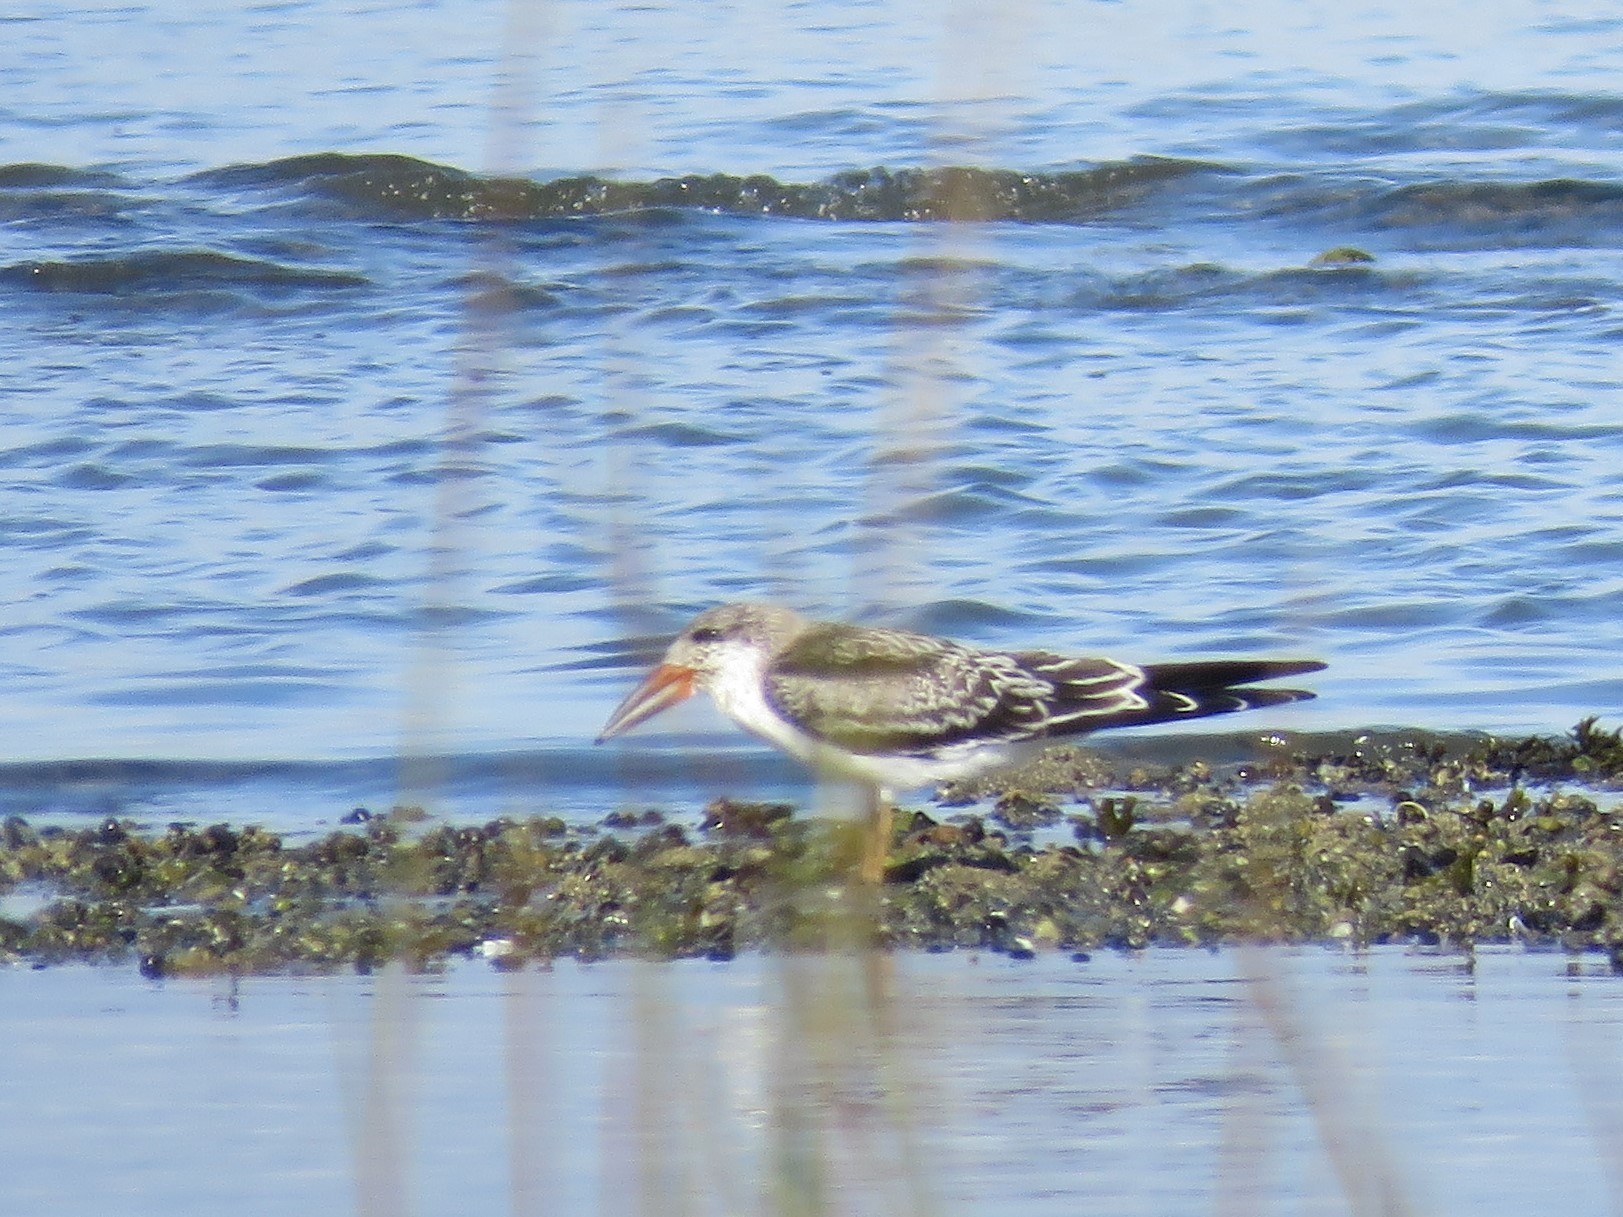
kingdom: Animalia
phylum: Chordata
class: Aves
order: Charadriiformes
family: Laridae
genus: Rynchops
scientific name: Rynchops niger
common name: Black skimmer
